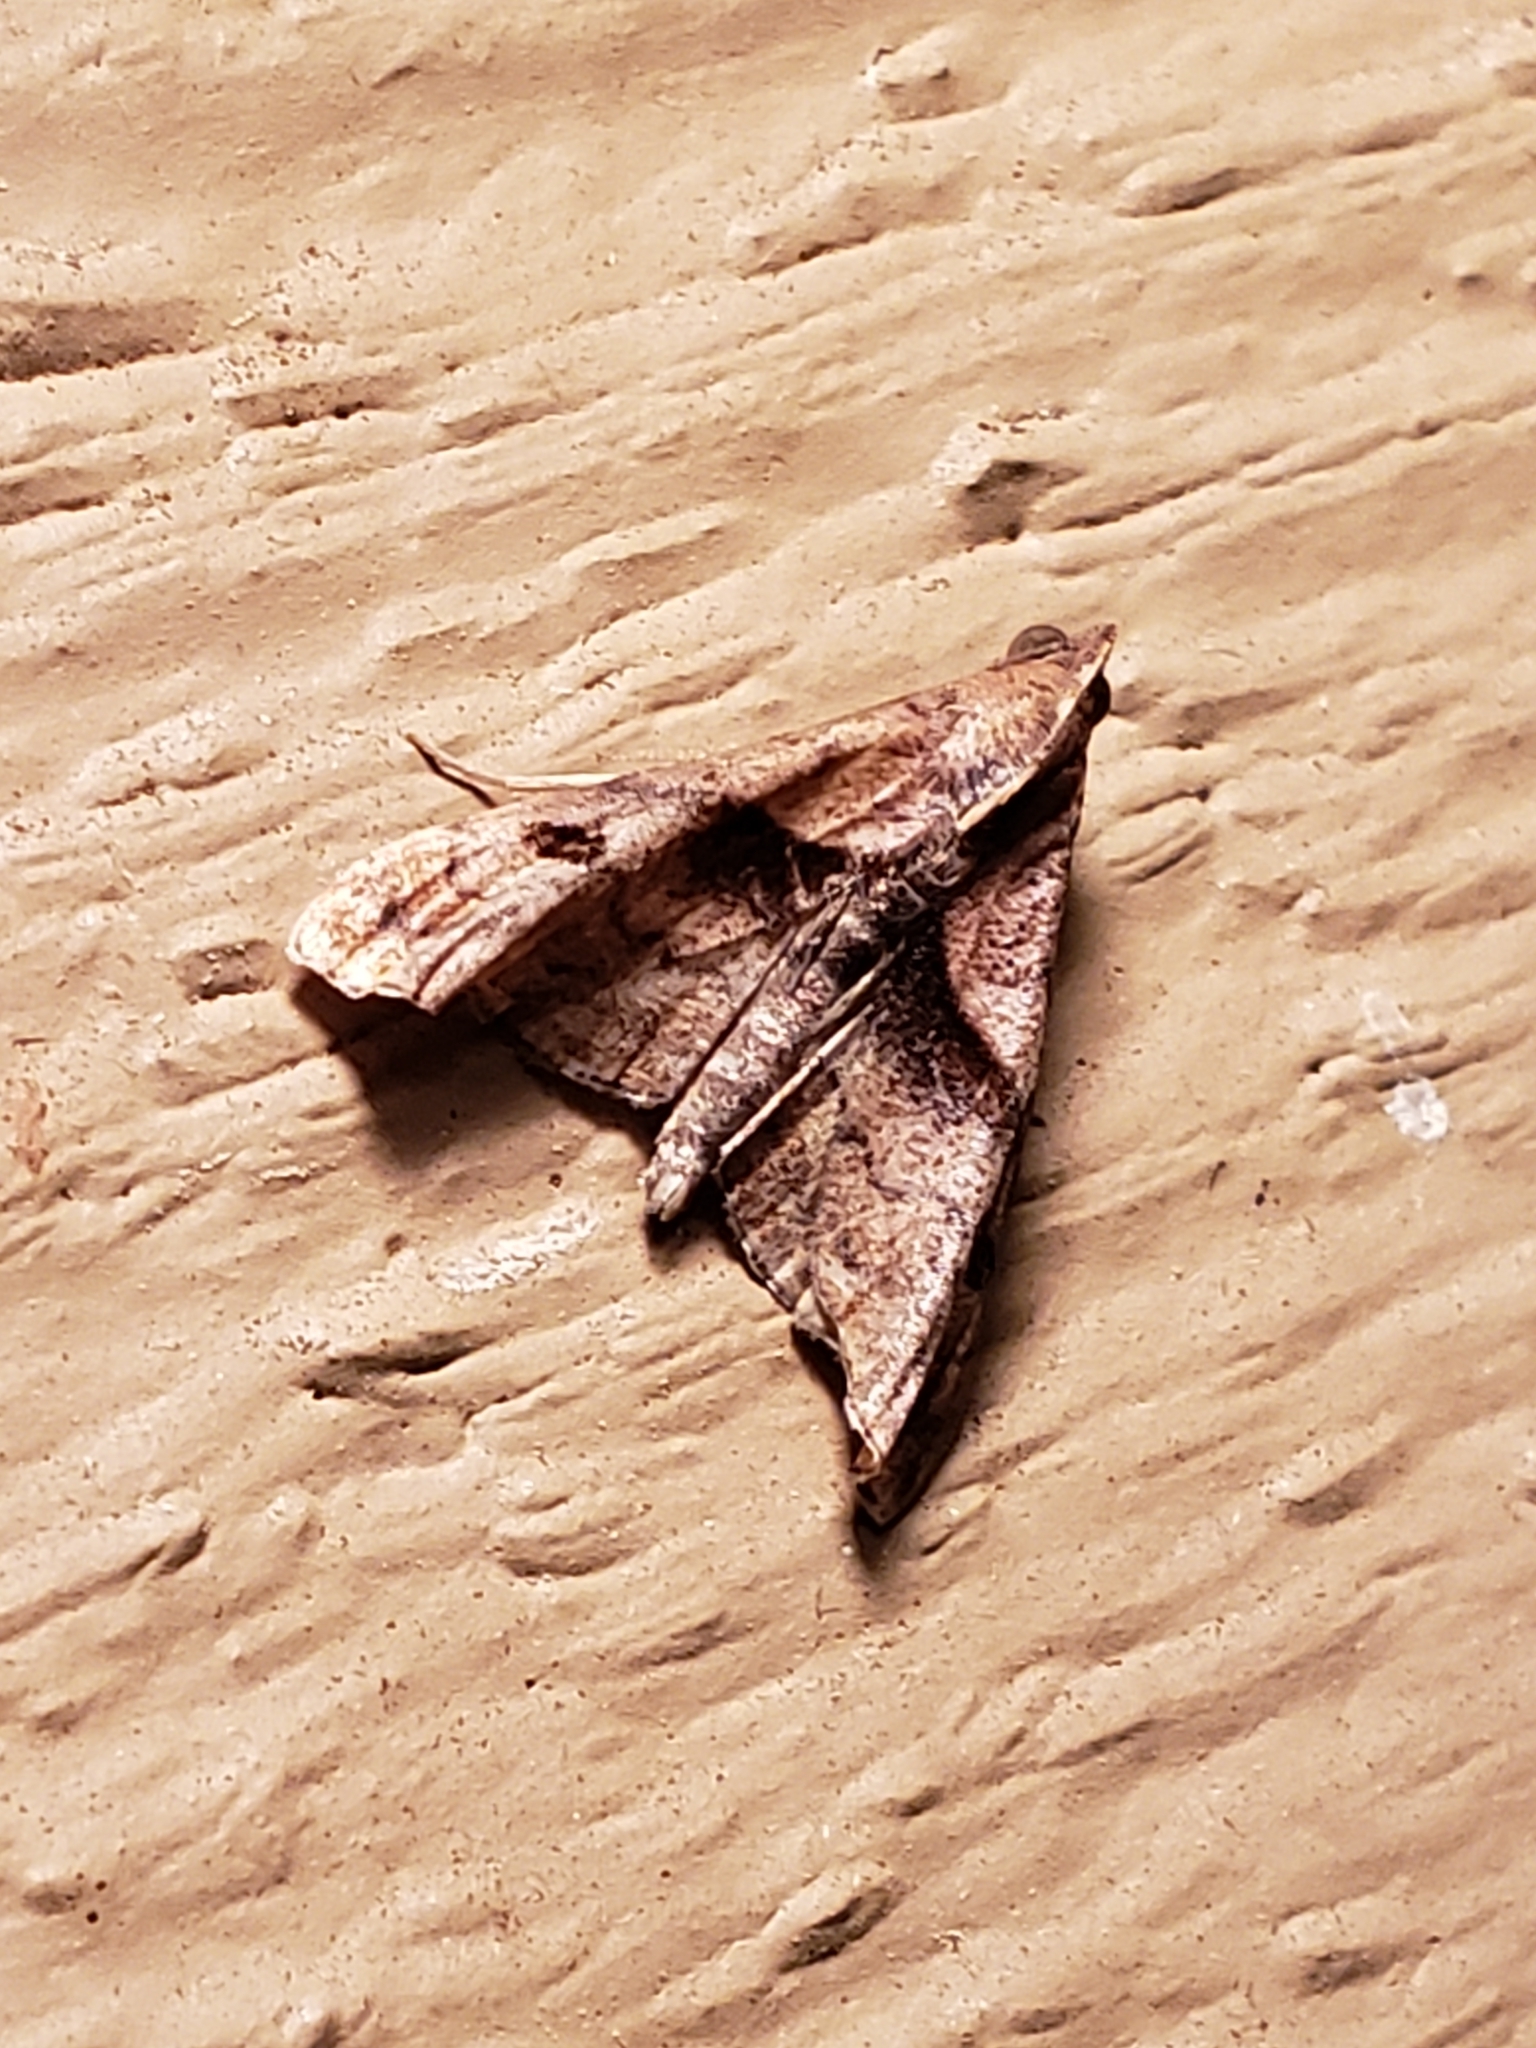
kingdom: Animalia
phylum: Arthropoda
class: Insecta
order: Lepidoptera
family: Erebidae
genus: Palthis
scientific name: Palthis angulalis
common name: Dark-spotted palthis moth
